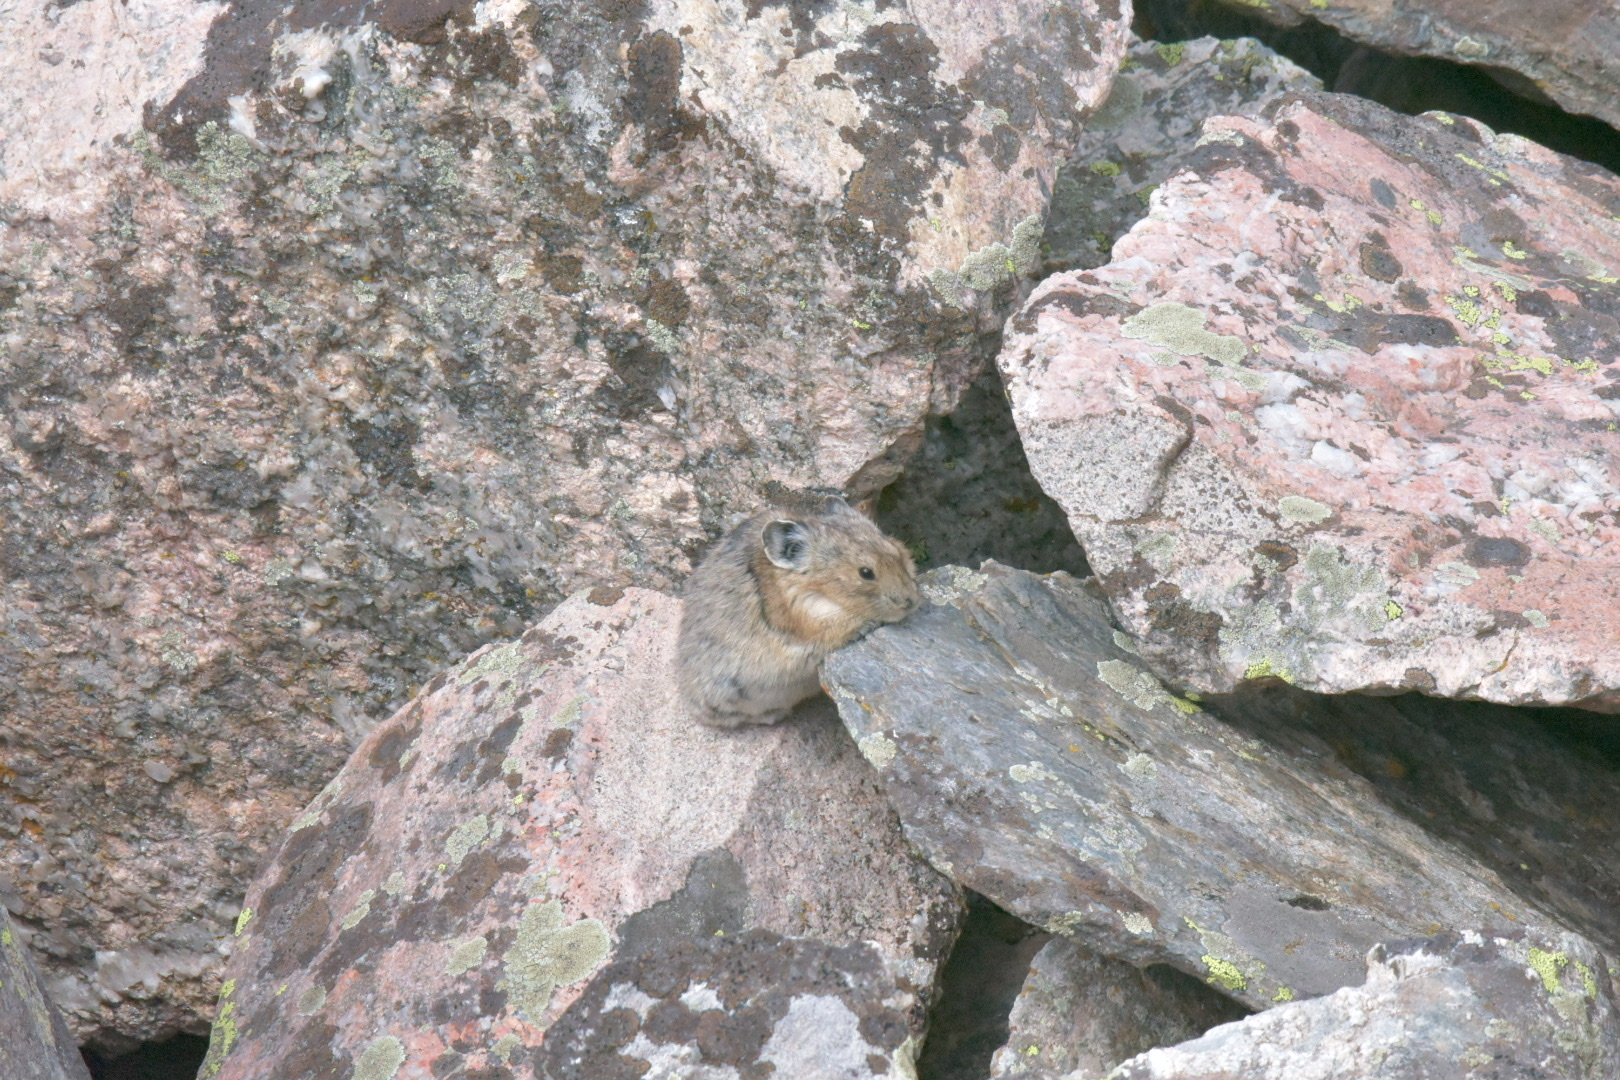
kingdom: Animalia
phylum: Chordata
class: Mammalia
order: Lagomorpha
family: Ochotonidae
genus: Ochotona
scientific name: Ochotona princeps
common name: American pika
